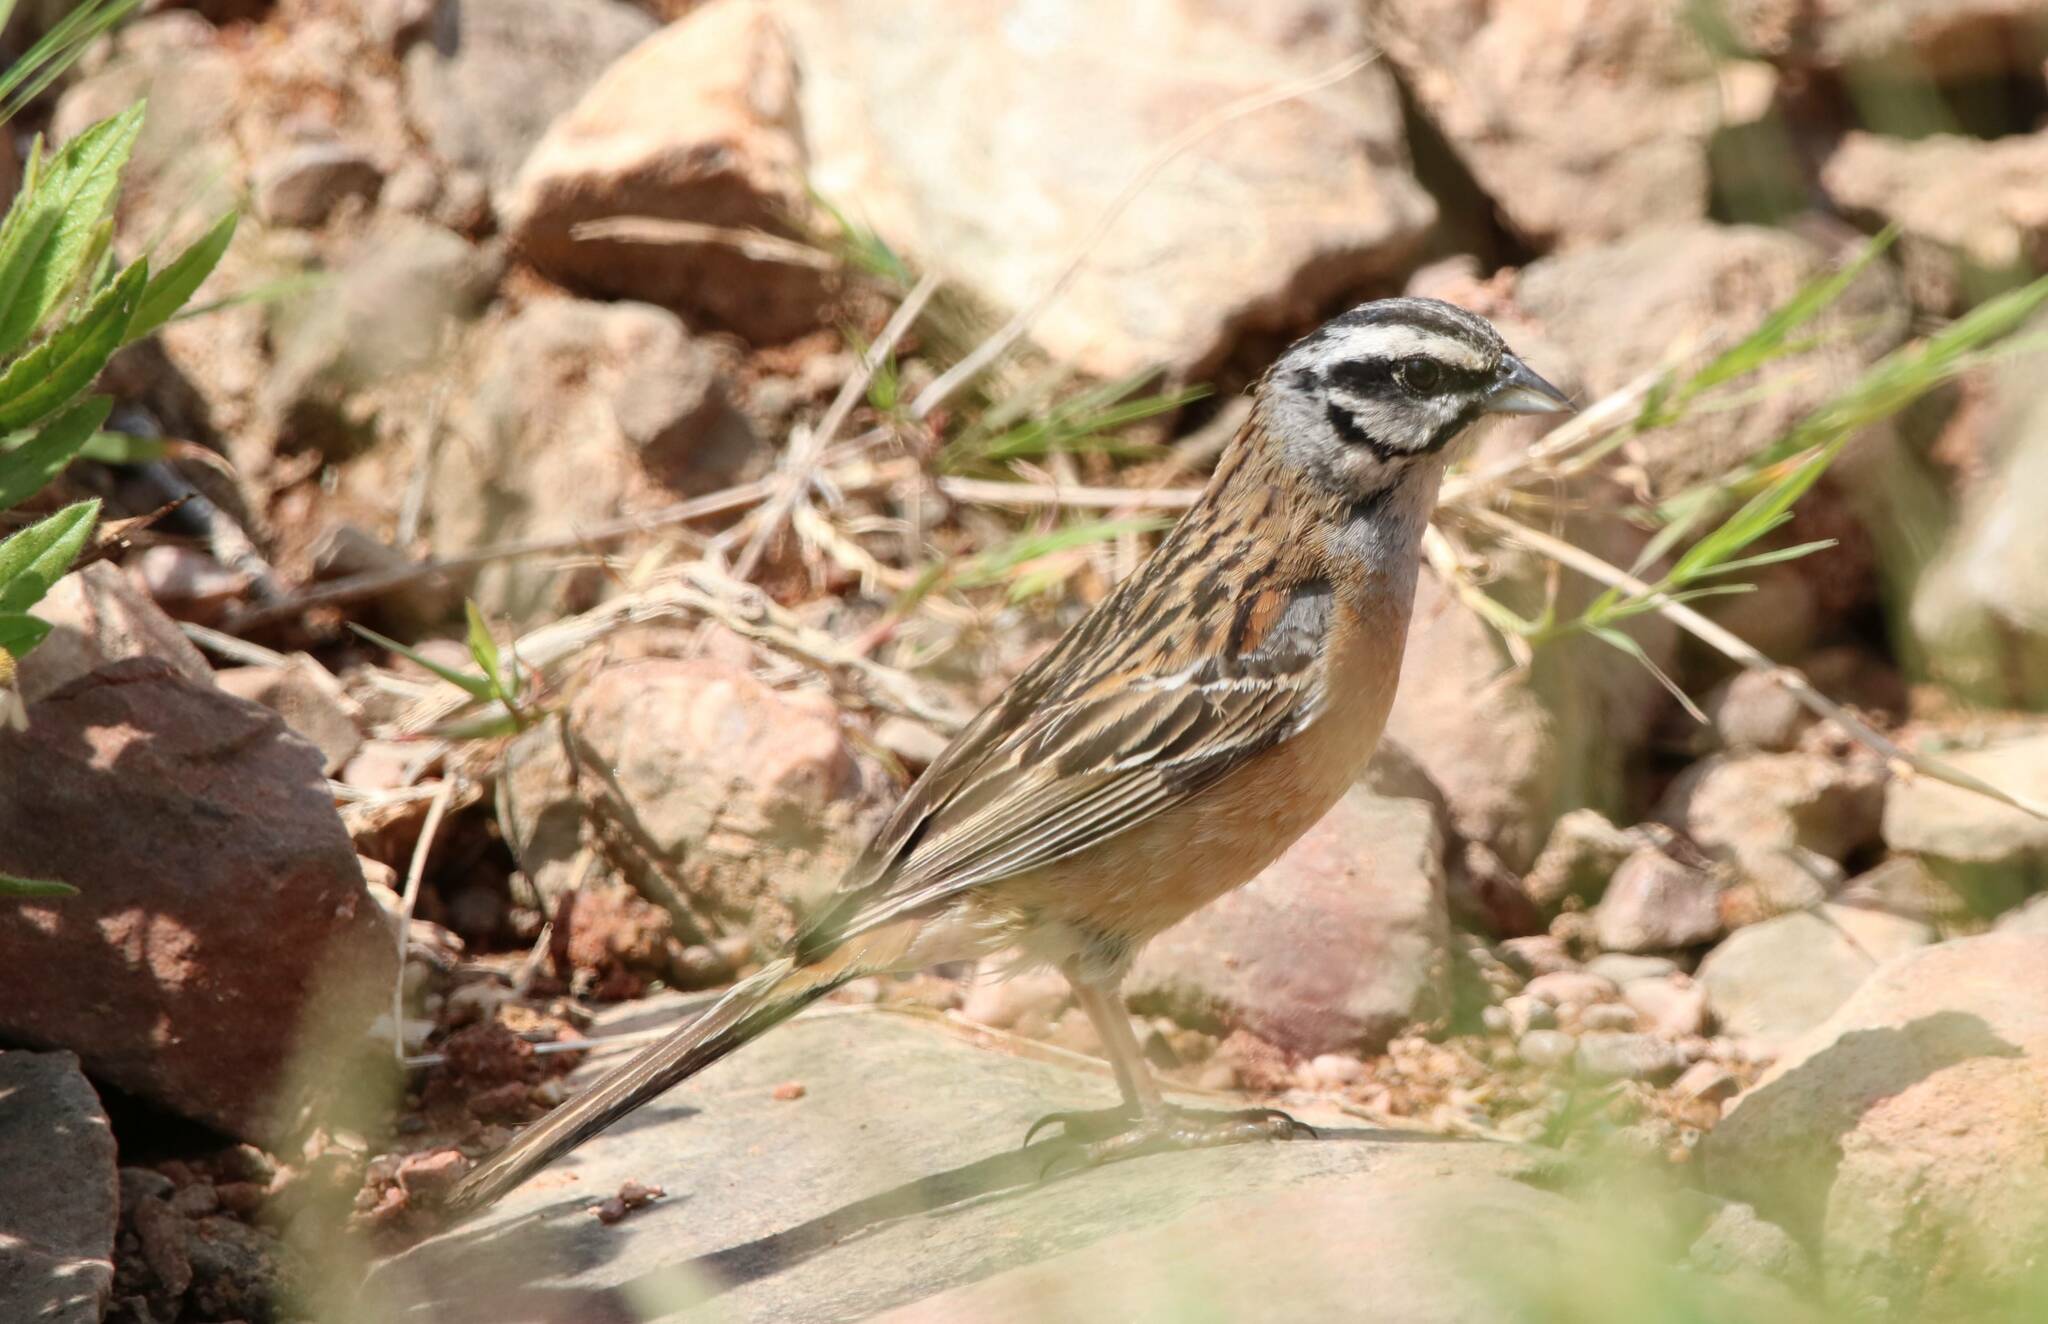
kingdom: Animalia
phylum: Chordata
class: Aves
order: Passeriformes
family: Emberizidae
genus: Emberiza
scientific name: Emberiza cia
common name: Rock bunting
